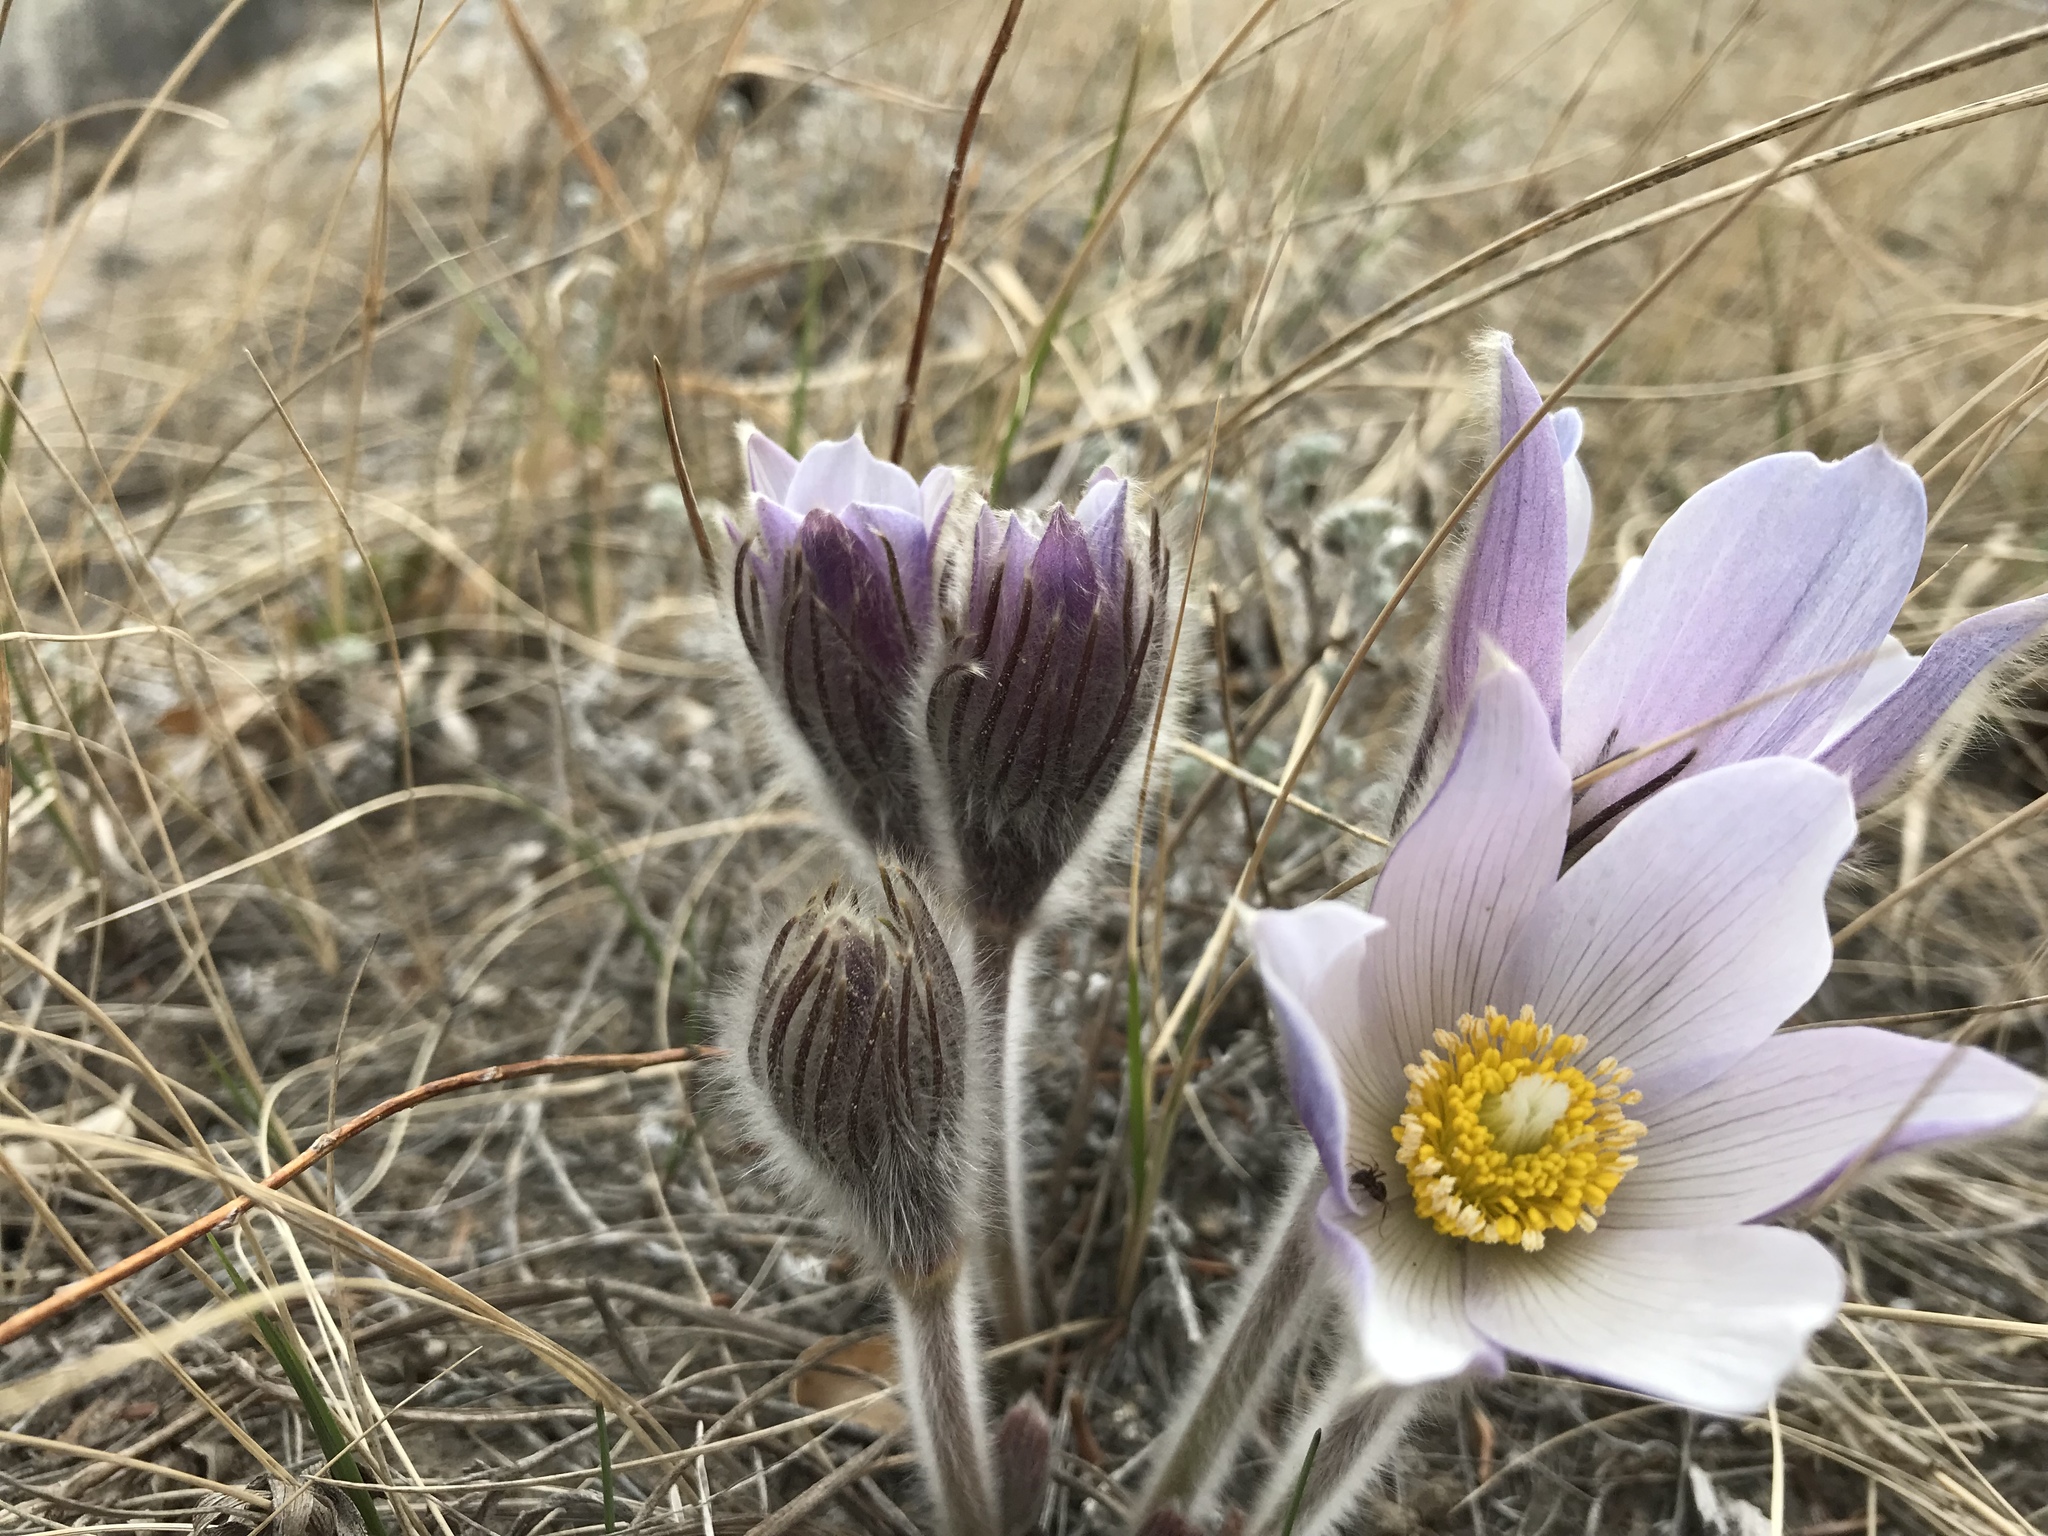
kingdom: Plantae
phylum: Tracheophyta
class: Magnoliopsida
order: Ranunculales
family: Ranunculaceae
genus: Pulsatilla
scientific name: Pulsatilla nuttalliana
